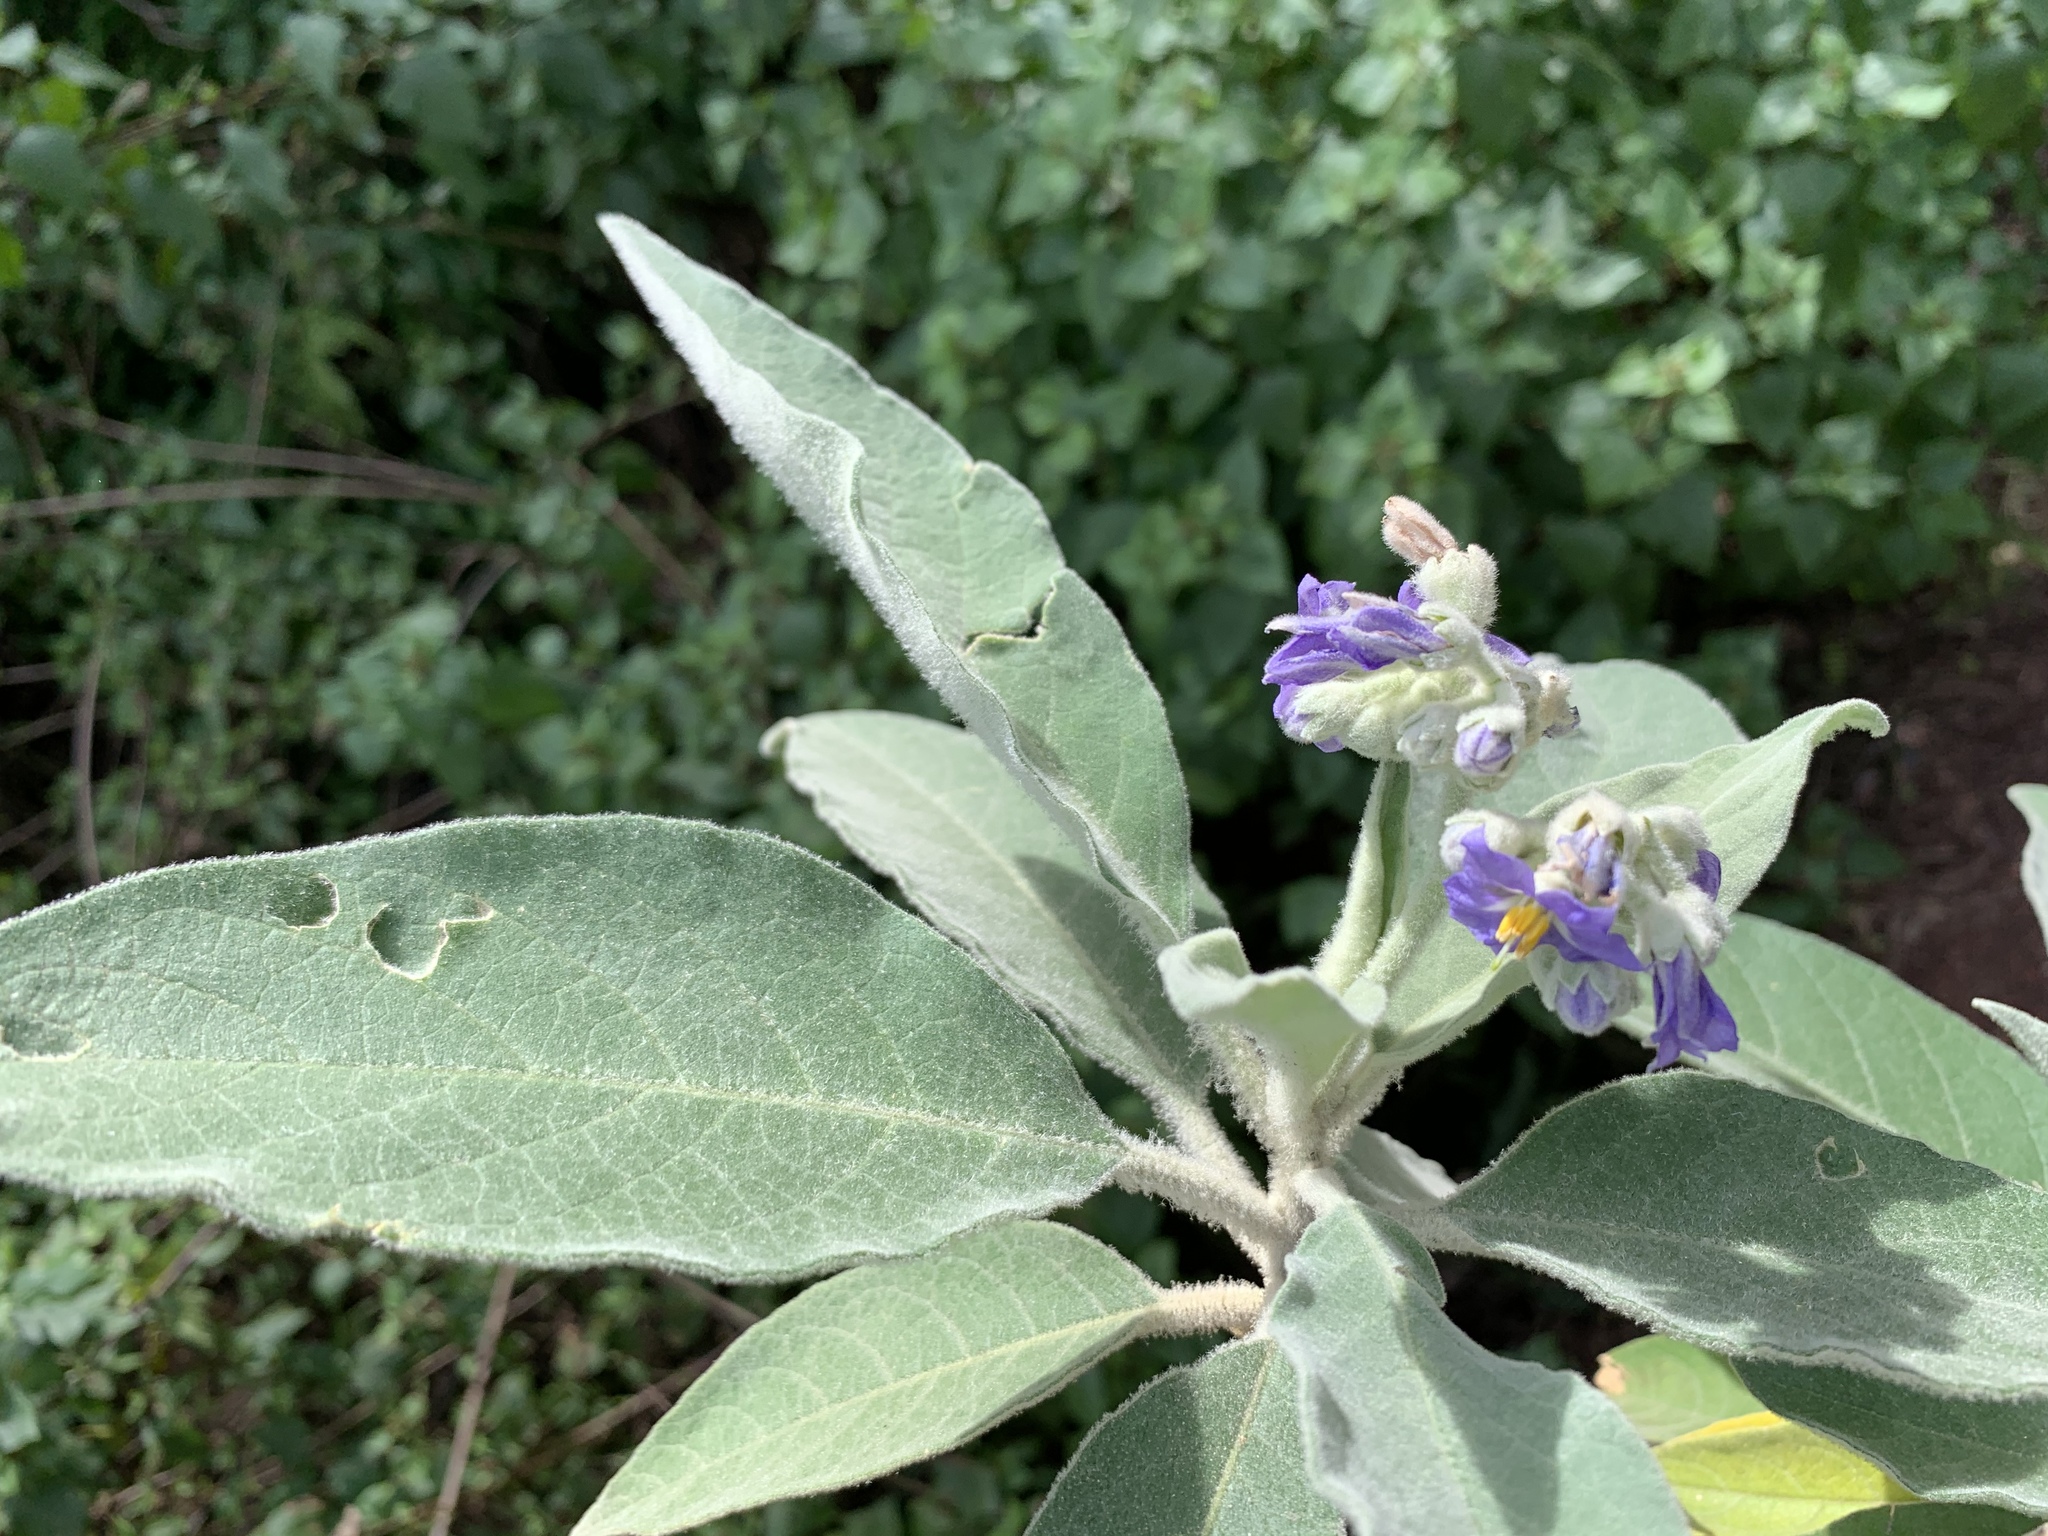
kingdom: Plantae
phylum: Tracheophyta
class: Magnoliopsida
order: Solanales
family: Solanaceae
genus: Solanum
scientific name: Solanum mauritianum
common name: Earleaf nightshade
